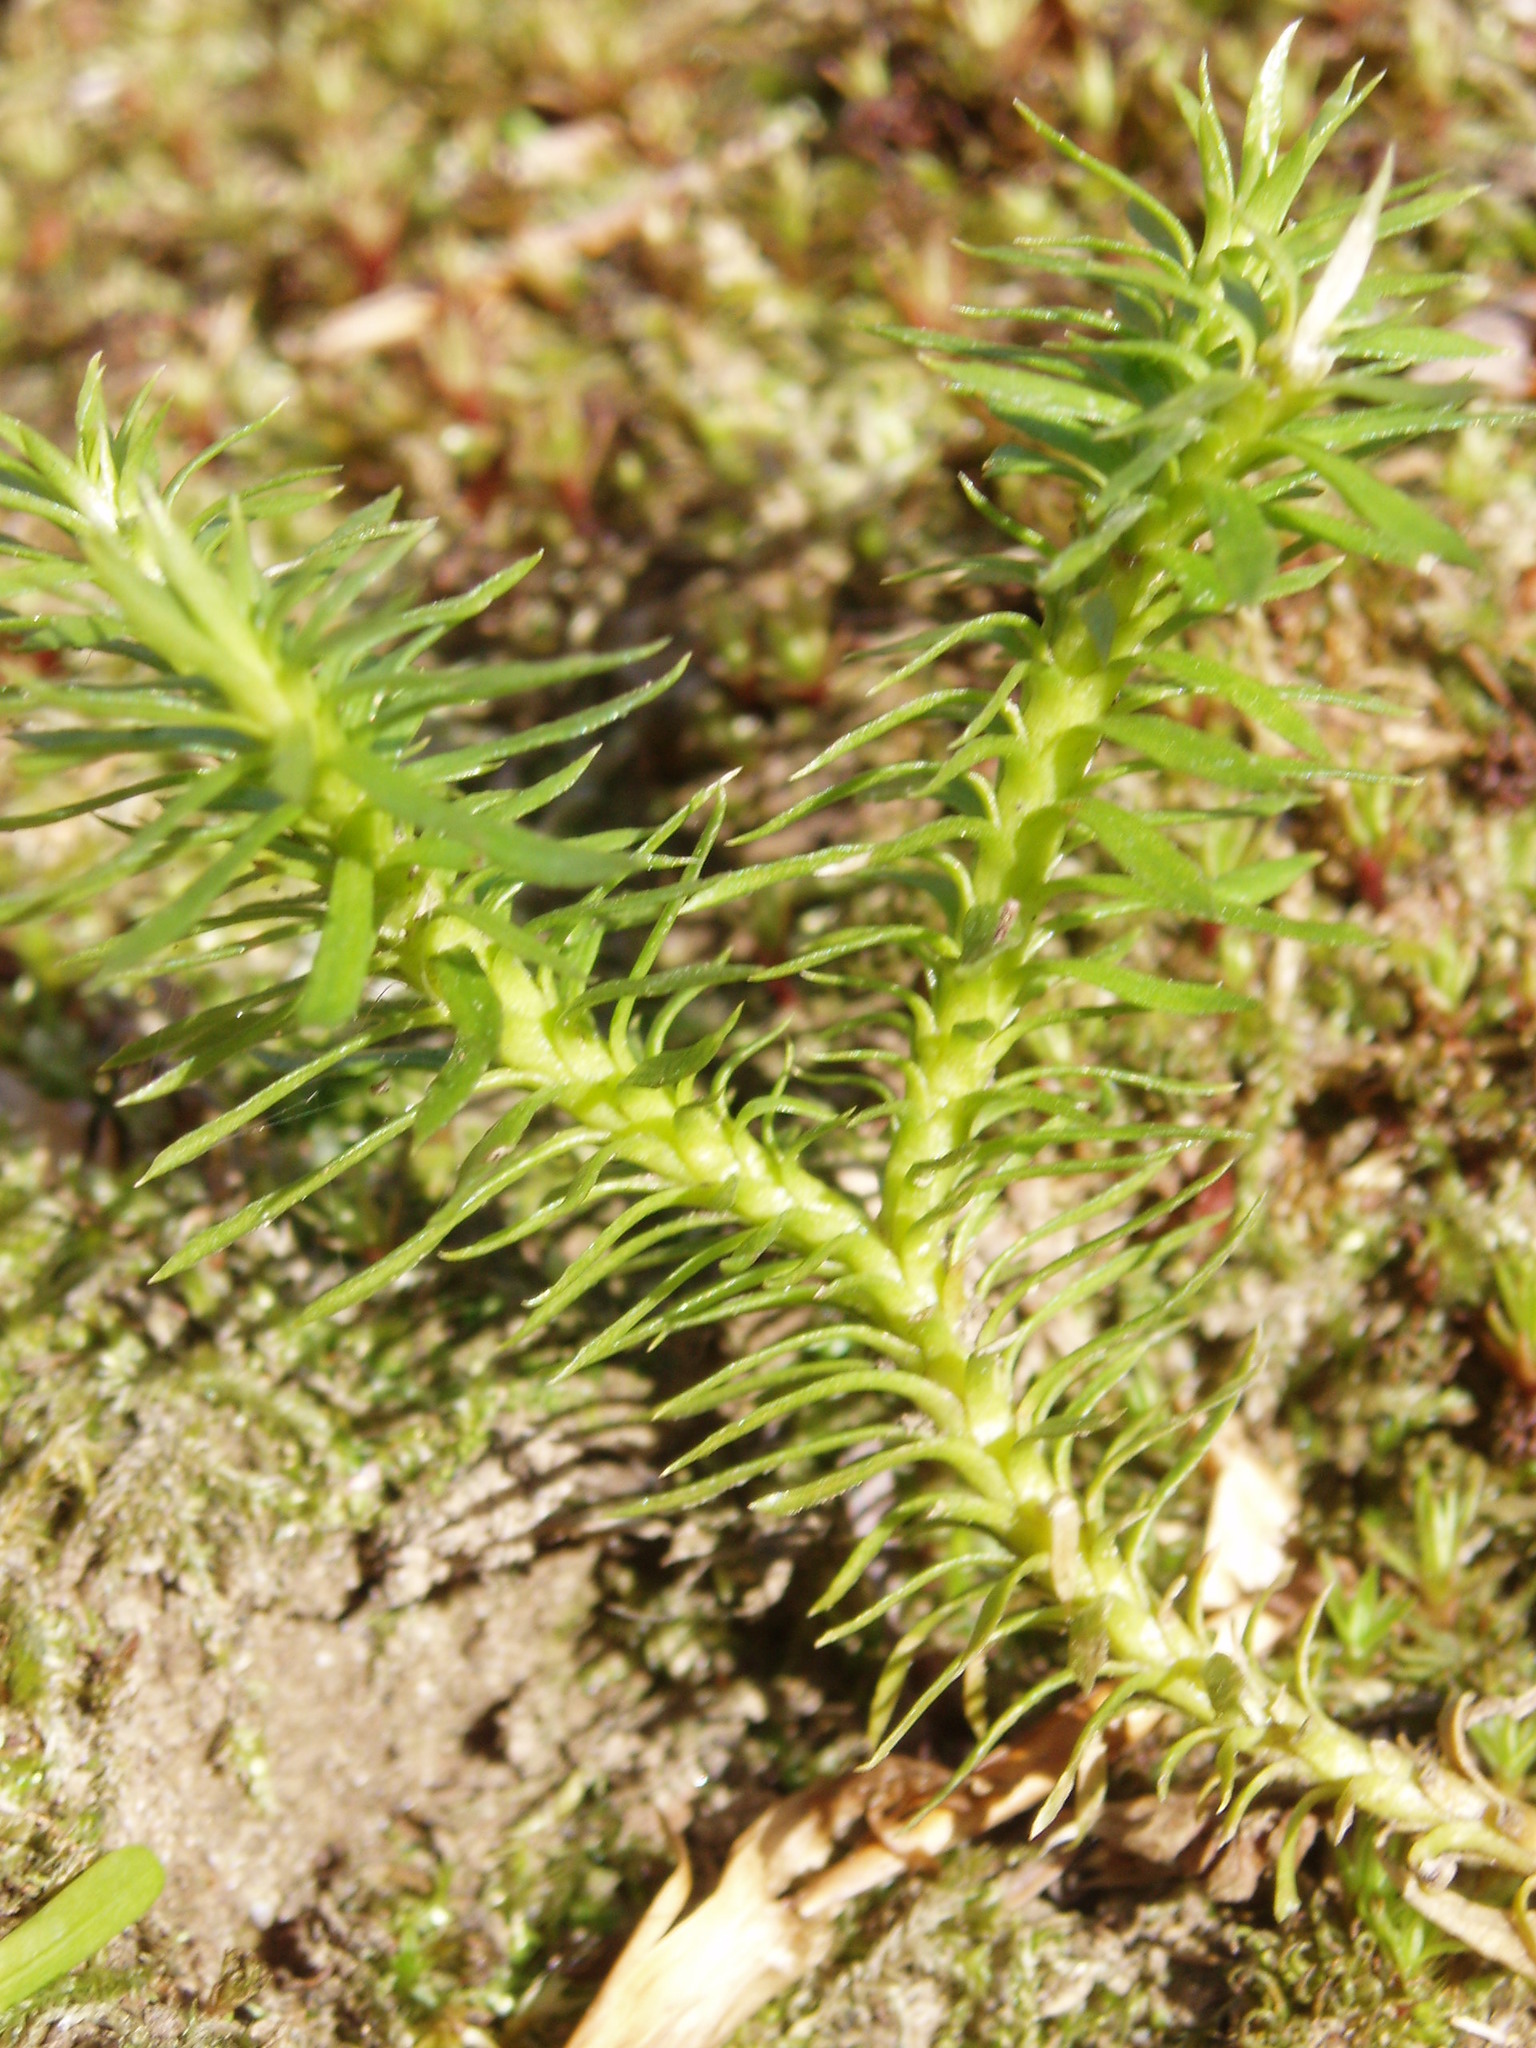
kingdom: Plantae
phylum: Tracheophyta
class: Lycopodiopsida
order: Lycopodiales
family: Lycopodiaceae
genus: Huperzia
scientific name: Huperzia lucidula
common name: Shining clubmoss
